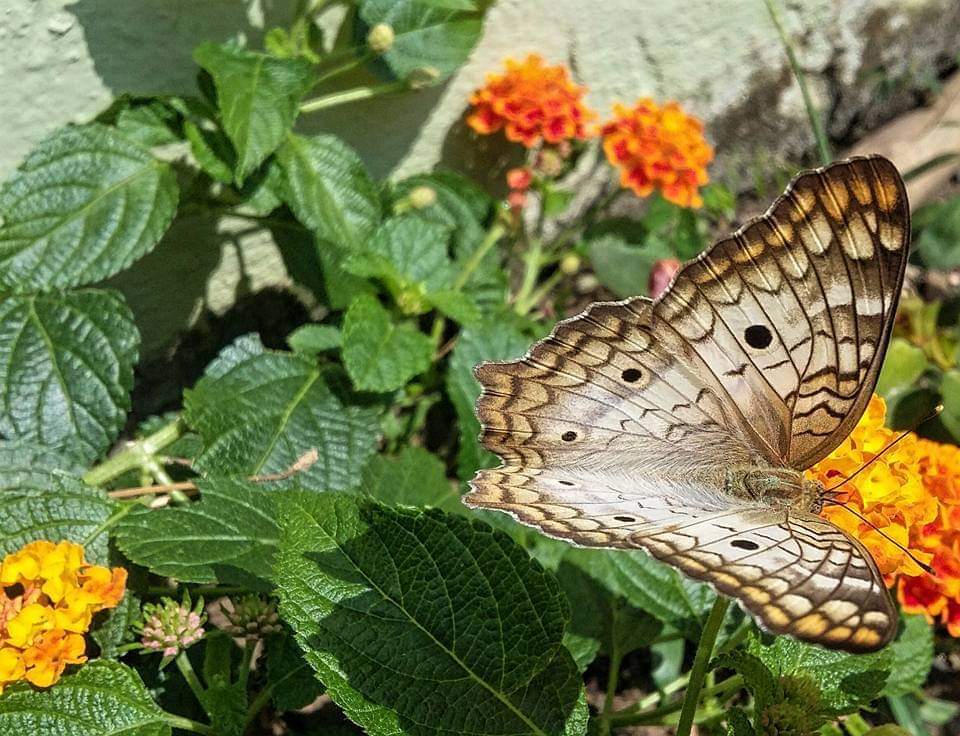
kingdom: Animalia
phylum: Arthropoda
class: Insecta
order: Lepidoptera
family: Nymphalidae
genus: Anartia
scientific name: Anartia jatrophae
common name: White peacock
